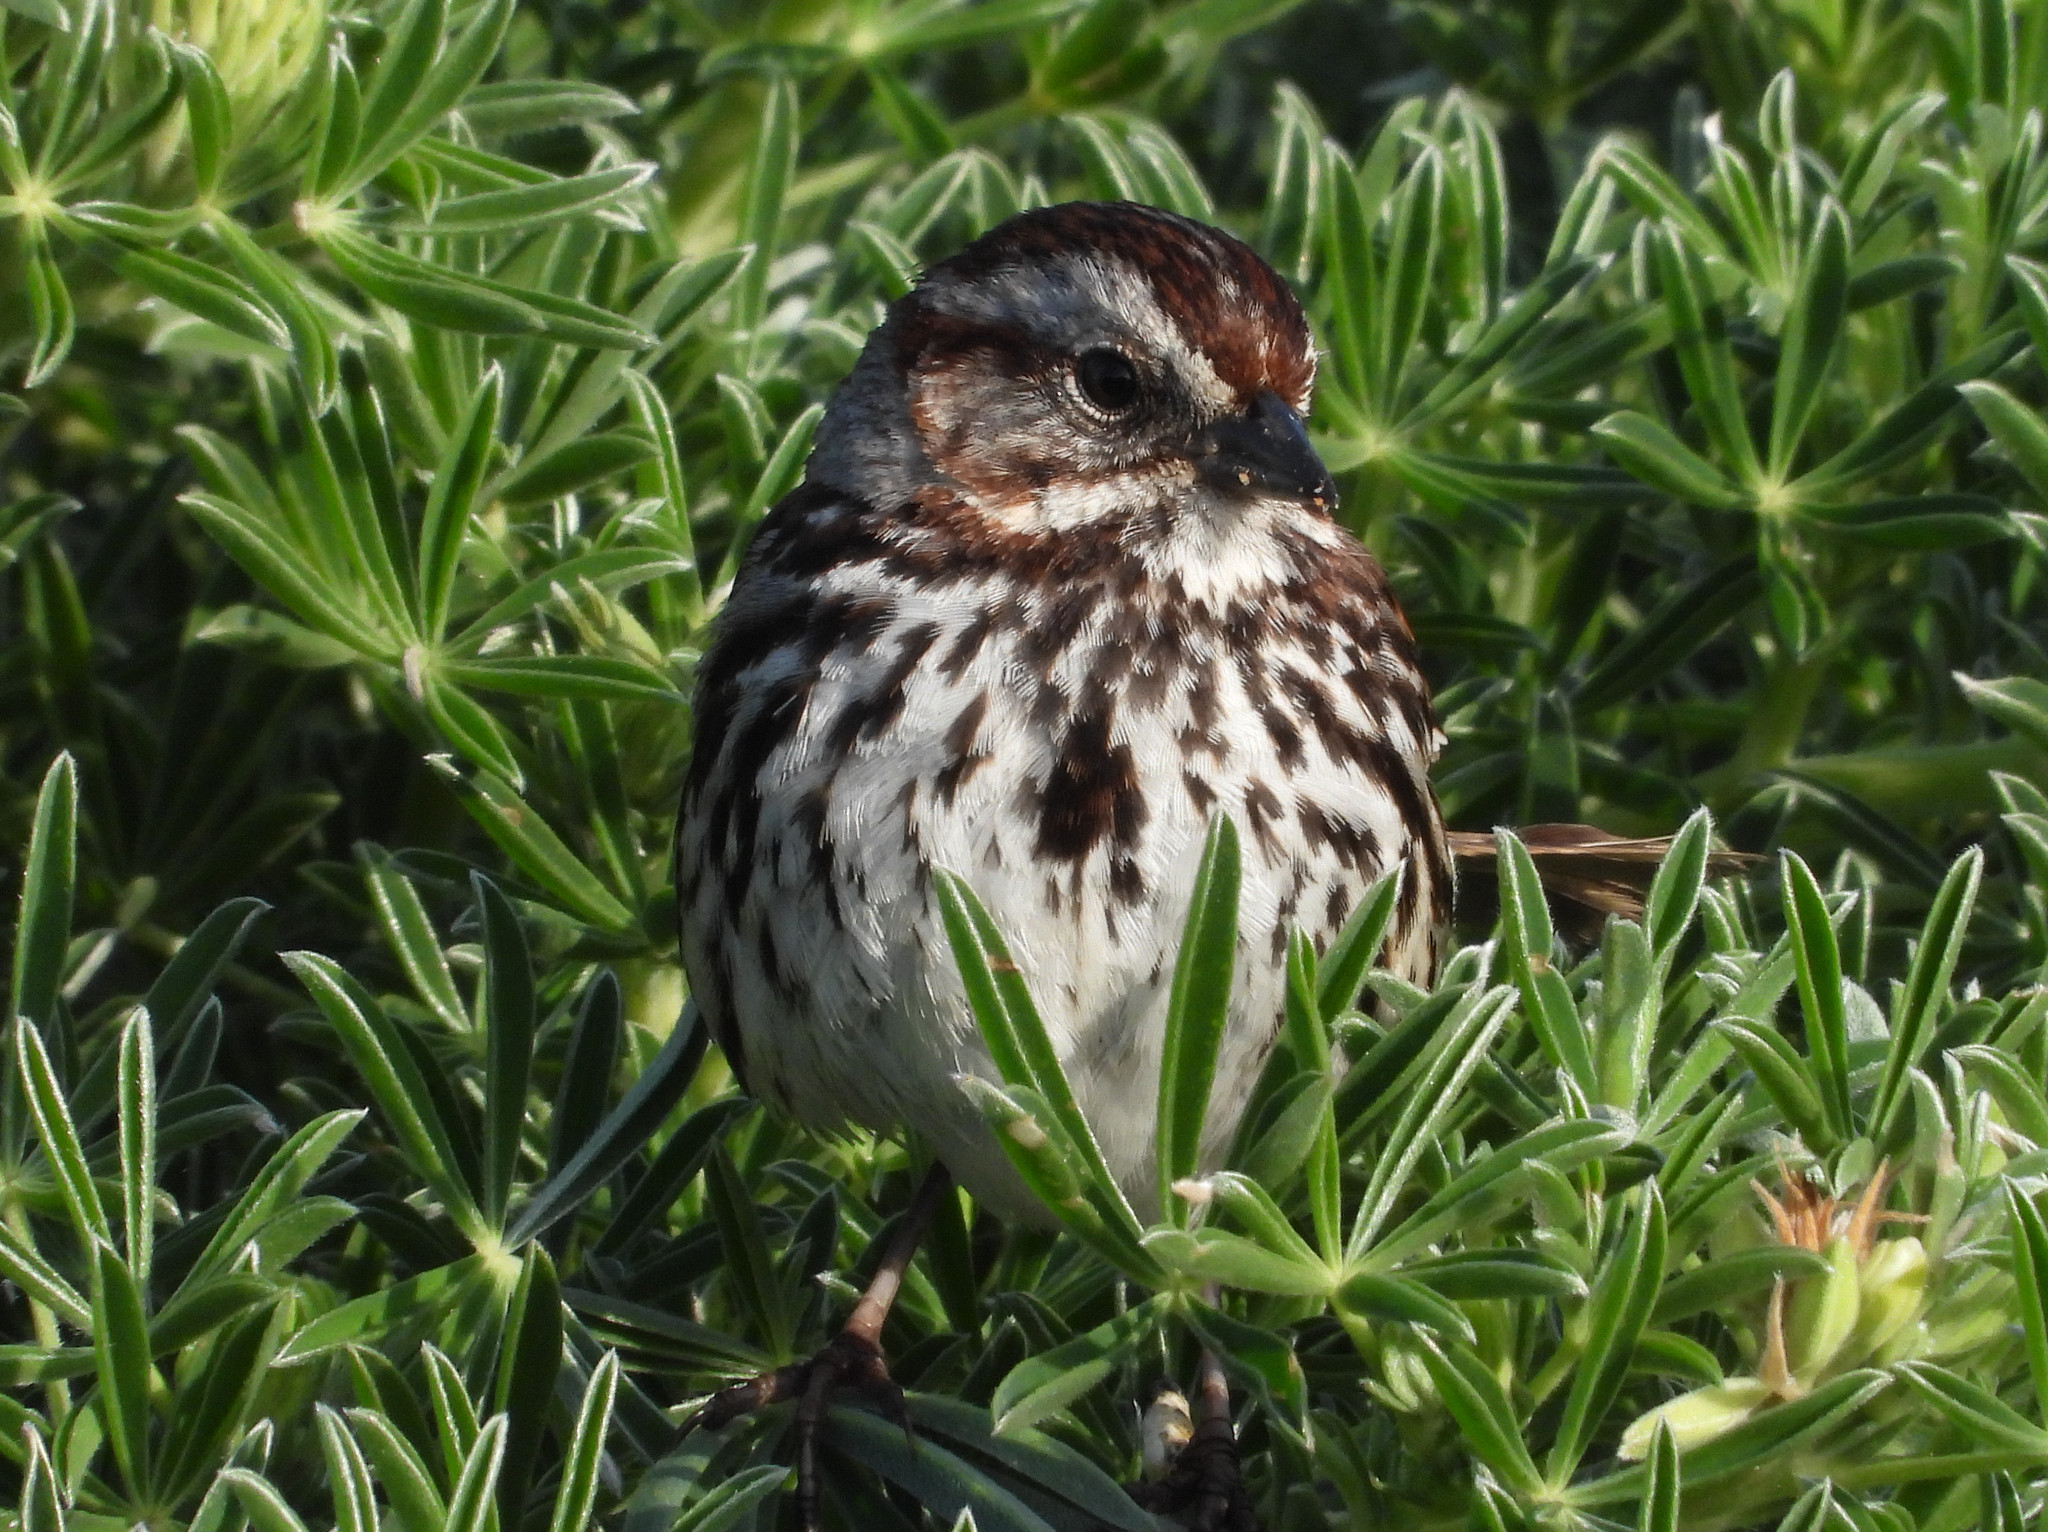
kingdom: Animalia
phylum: Chordata
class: Aves
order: Passeriformes
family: Passerellidae
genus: Melospiza
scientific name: Melospiza melodia
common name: Song sparrow
